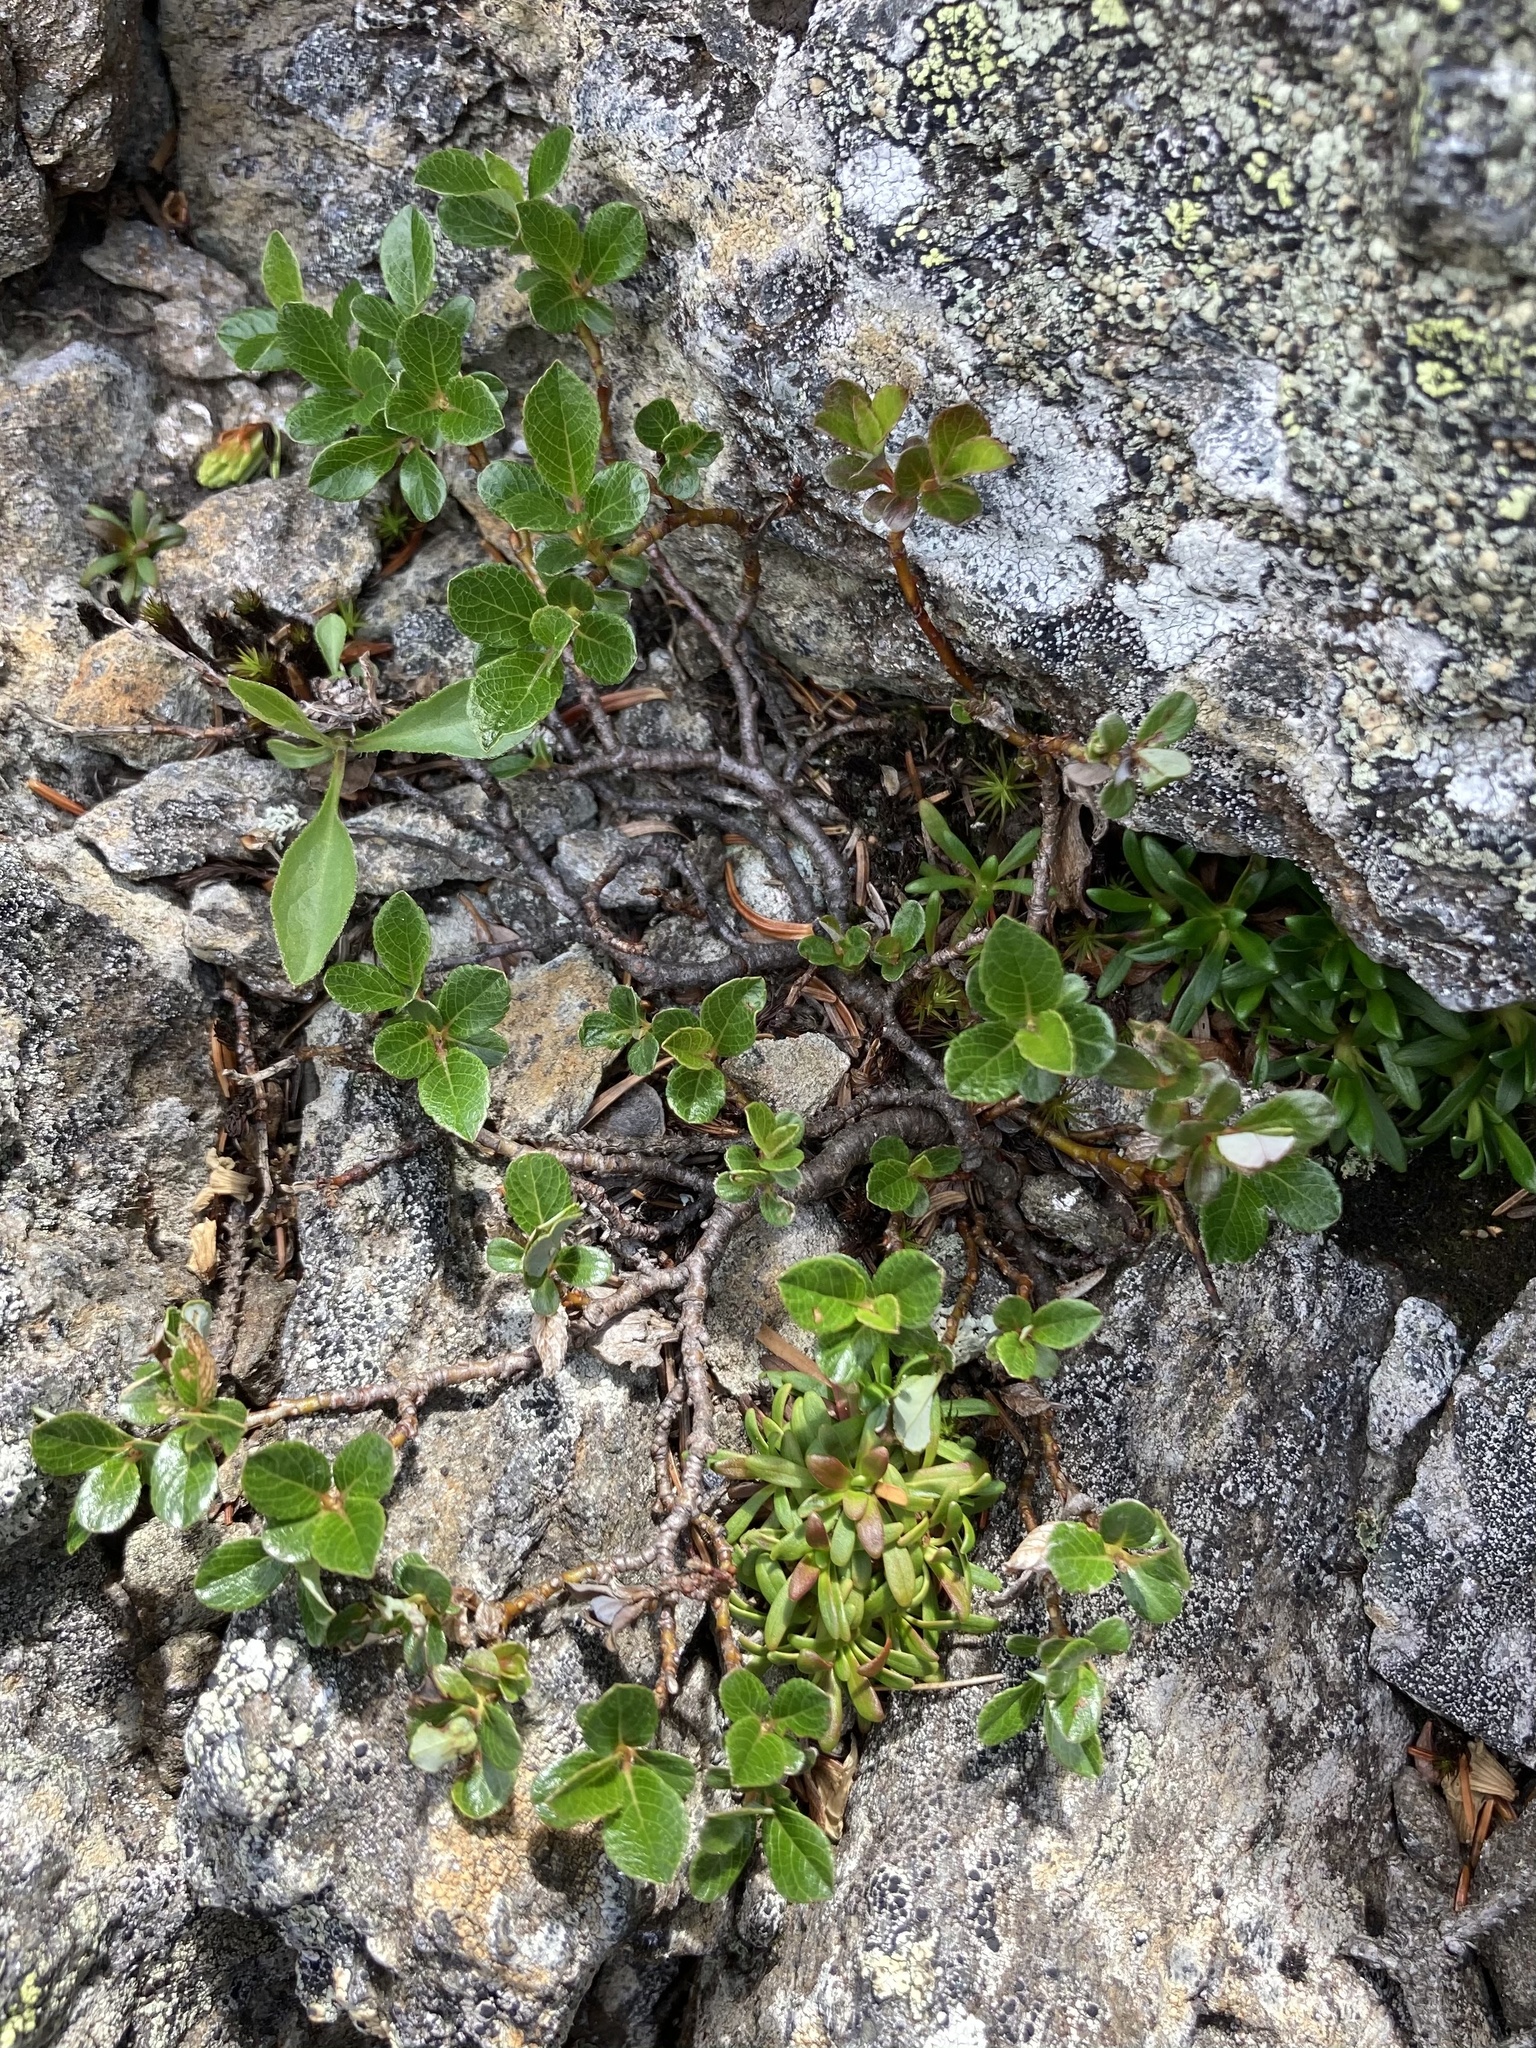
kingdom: Plantae
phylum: Tracheophyta
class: Magnoliopsida
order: Malpighiales
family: Salicaceae
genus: Salix
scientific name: Salix uva-ursi
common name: Bearberry willow
